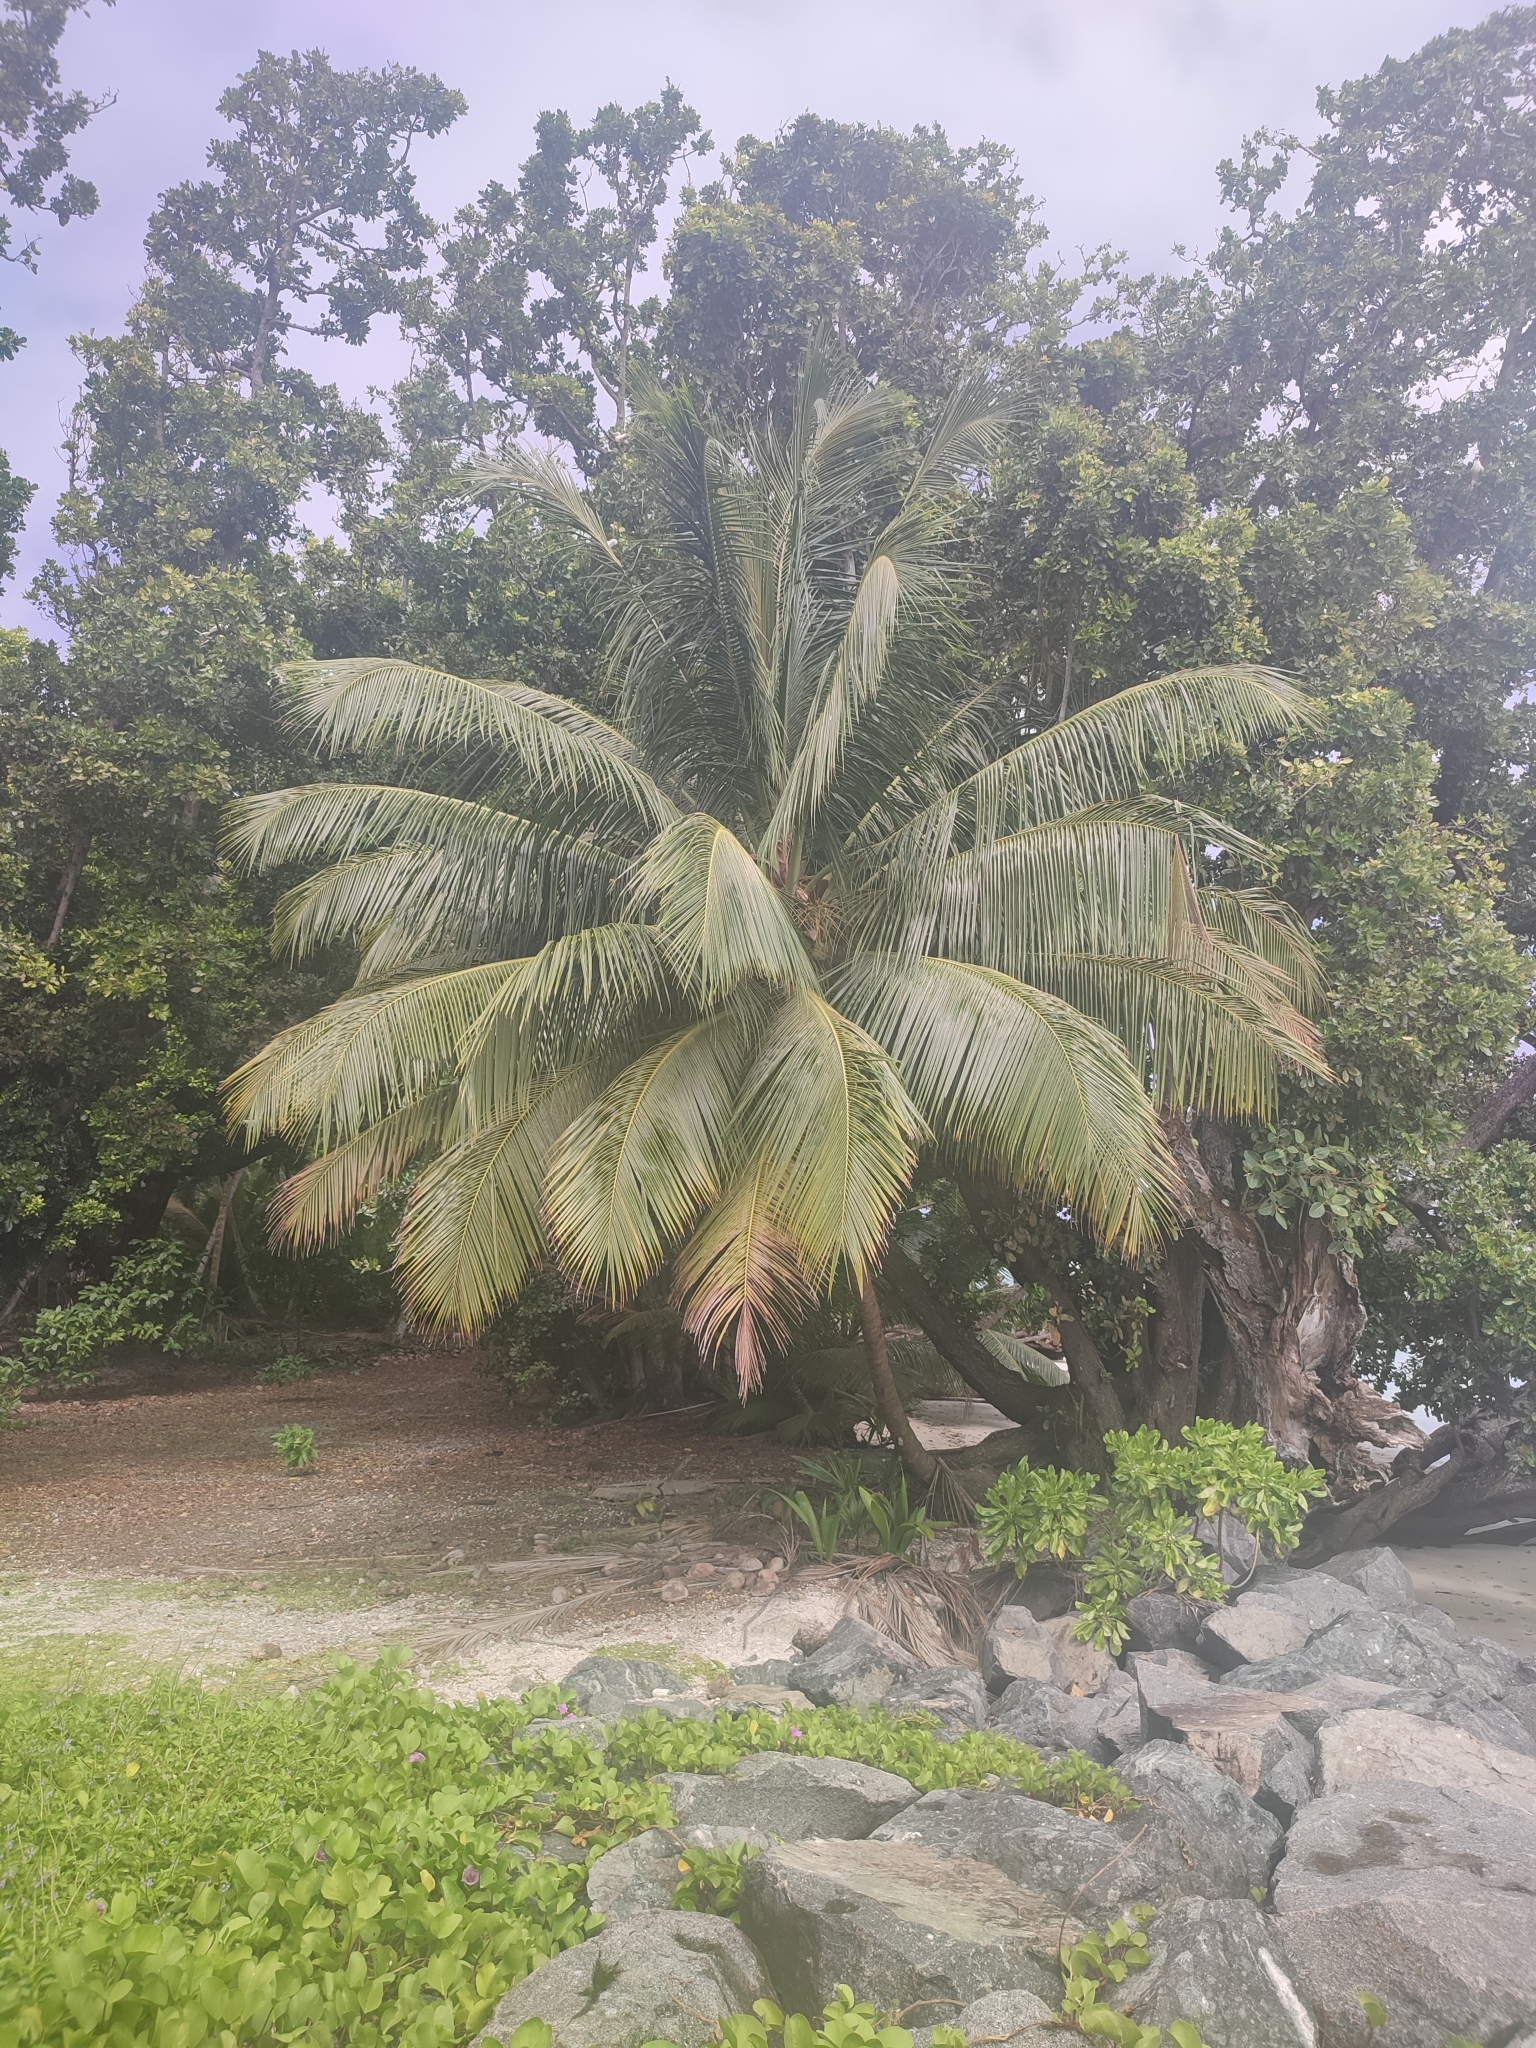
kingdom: Plantae
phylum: Tracheophyta
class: Liliopsida
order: Arecales
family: Arecaceae
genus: Cocos
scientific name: Cocos nucifera
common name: Coconut palm
